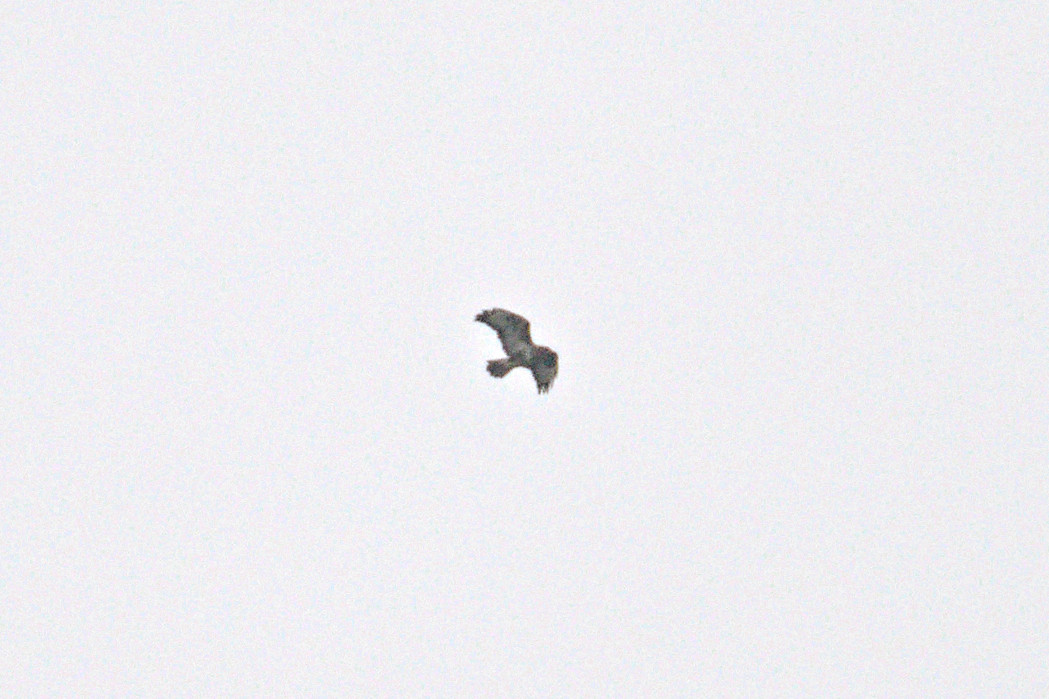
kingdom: Animalia
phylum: Chordata
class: Aves
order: Accipitriformes
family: Accipitridae
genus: Buteo
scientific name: Buteo buteo
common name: Common buzzard
